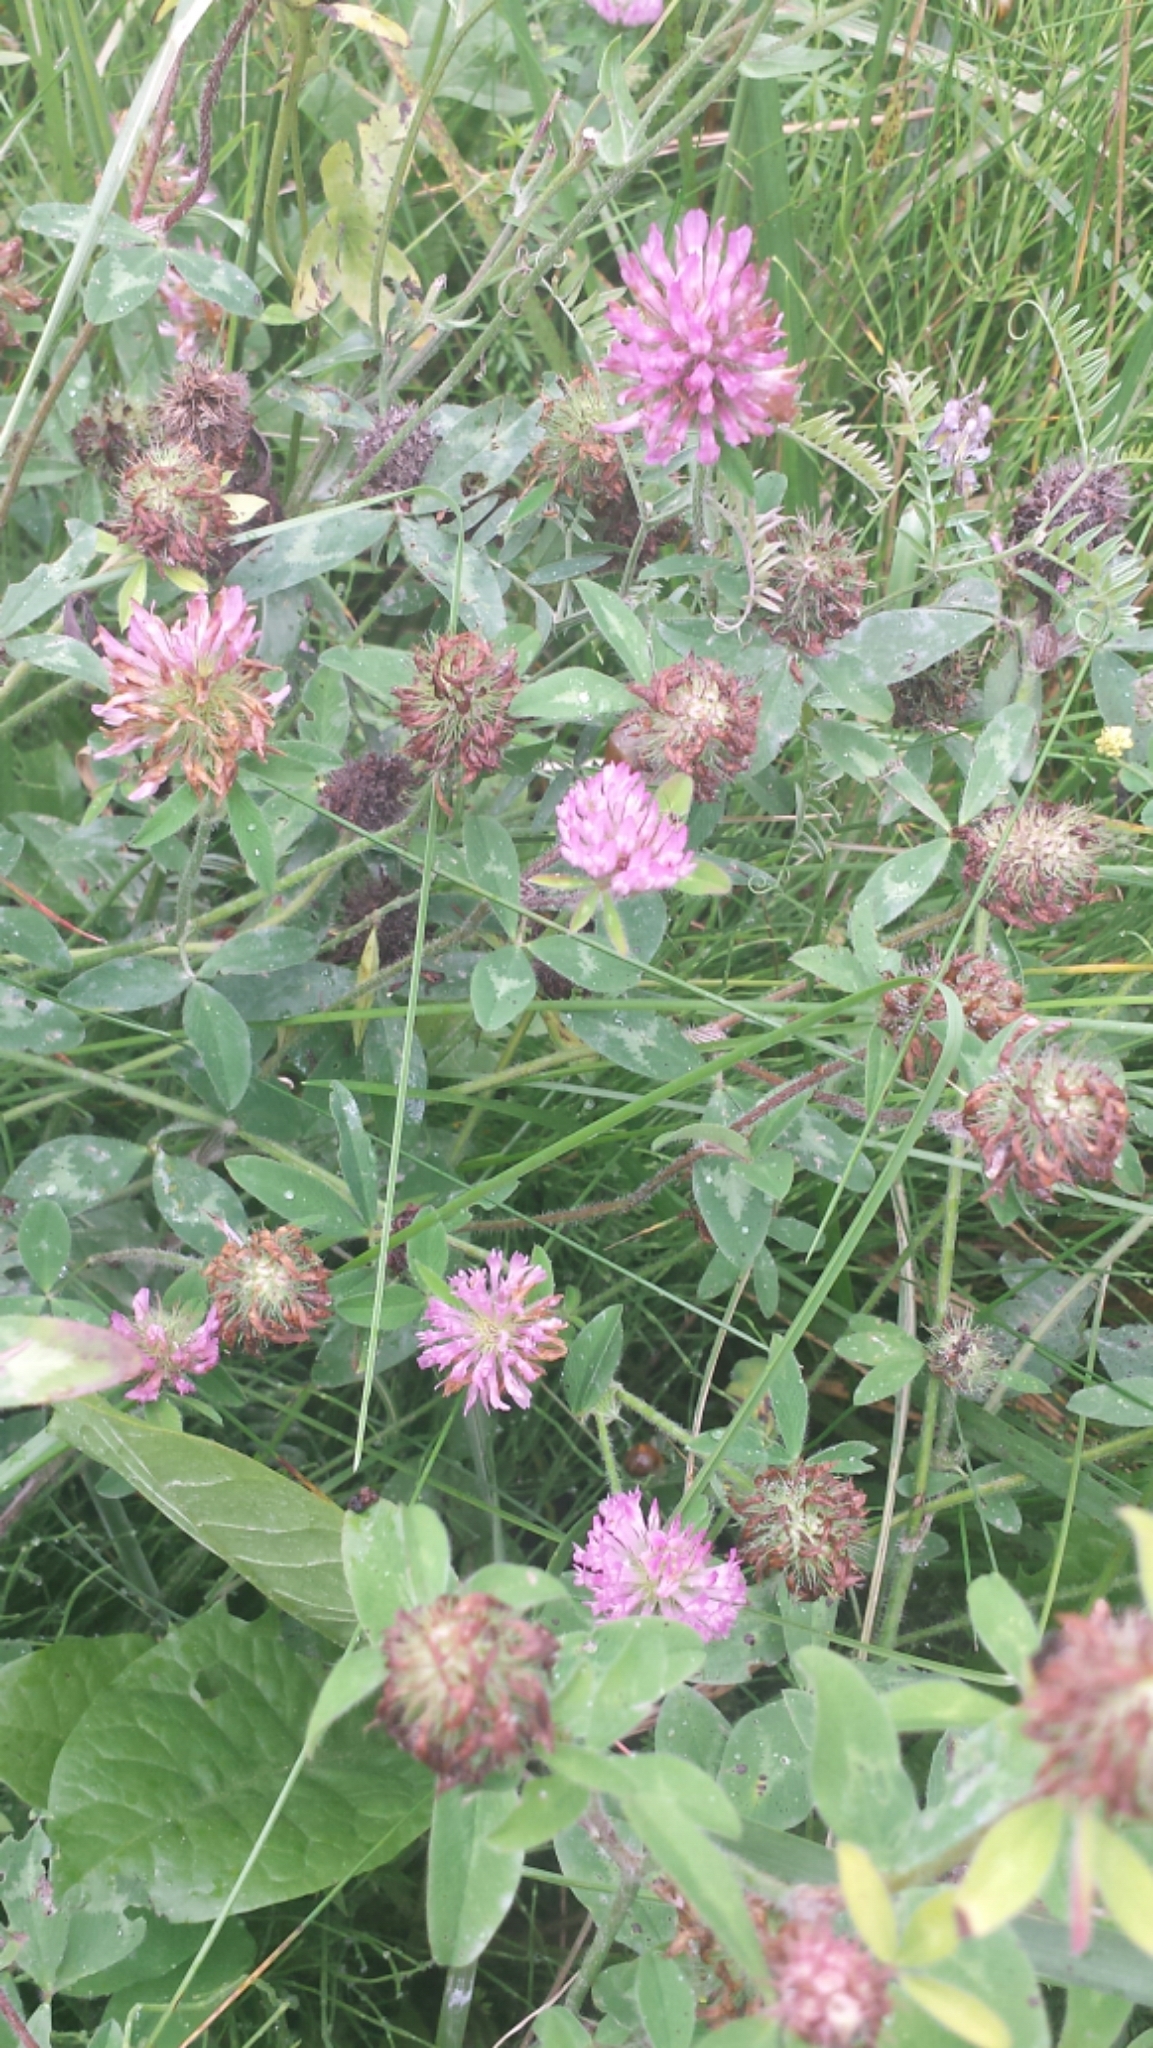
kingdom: Plantae
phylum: Tracheophyta
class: Magnoliopsida
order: Fabales
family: Fabaceae
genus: Trifolium
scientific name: Trifolium pratense
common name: Red clover
